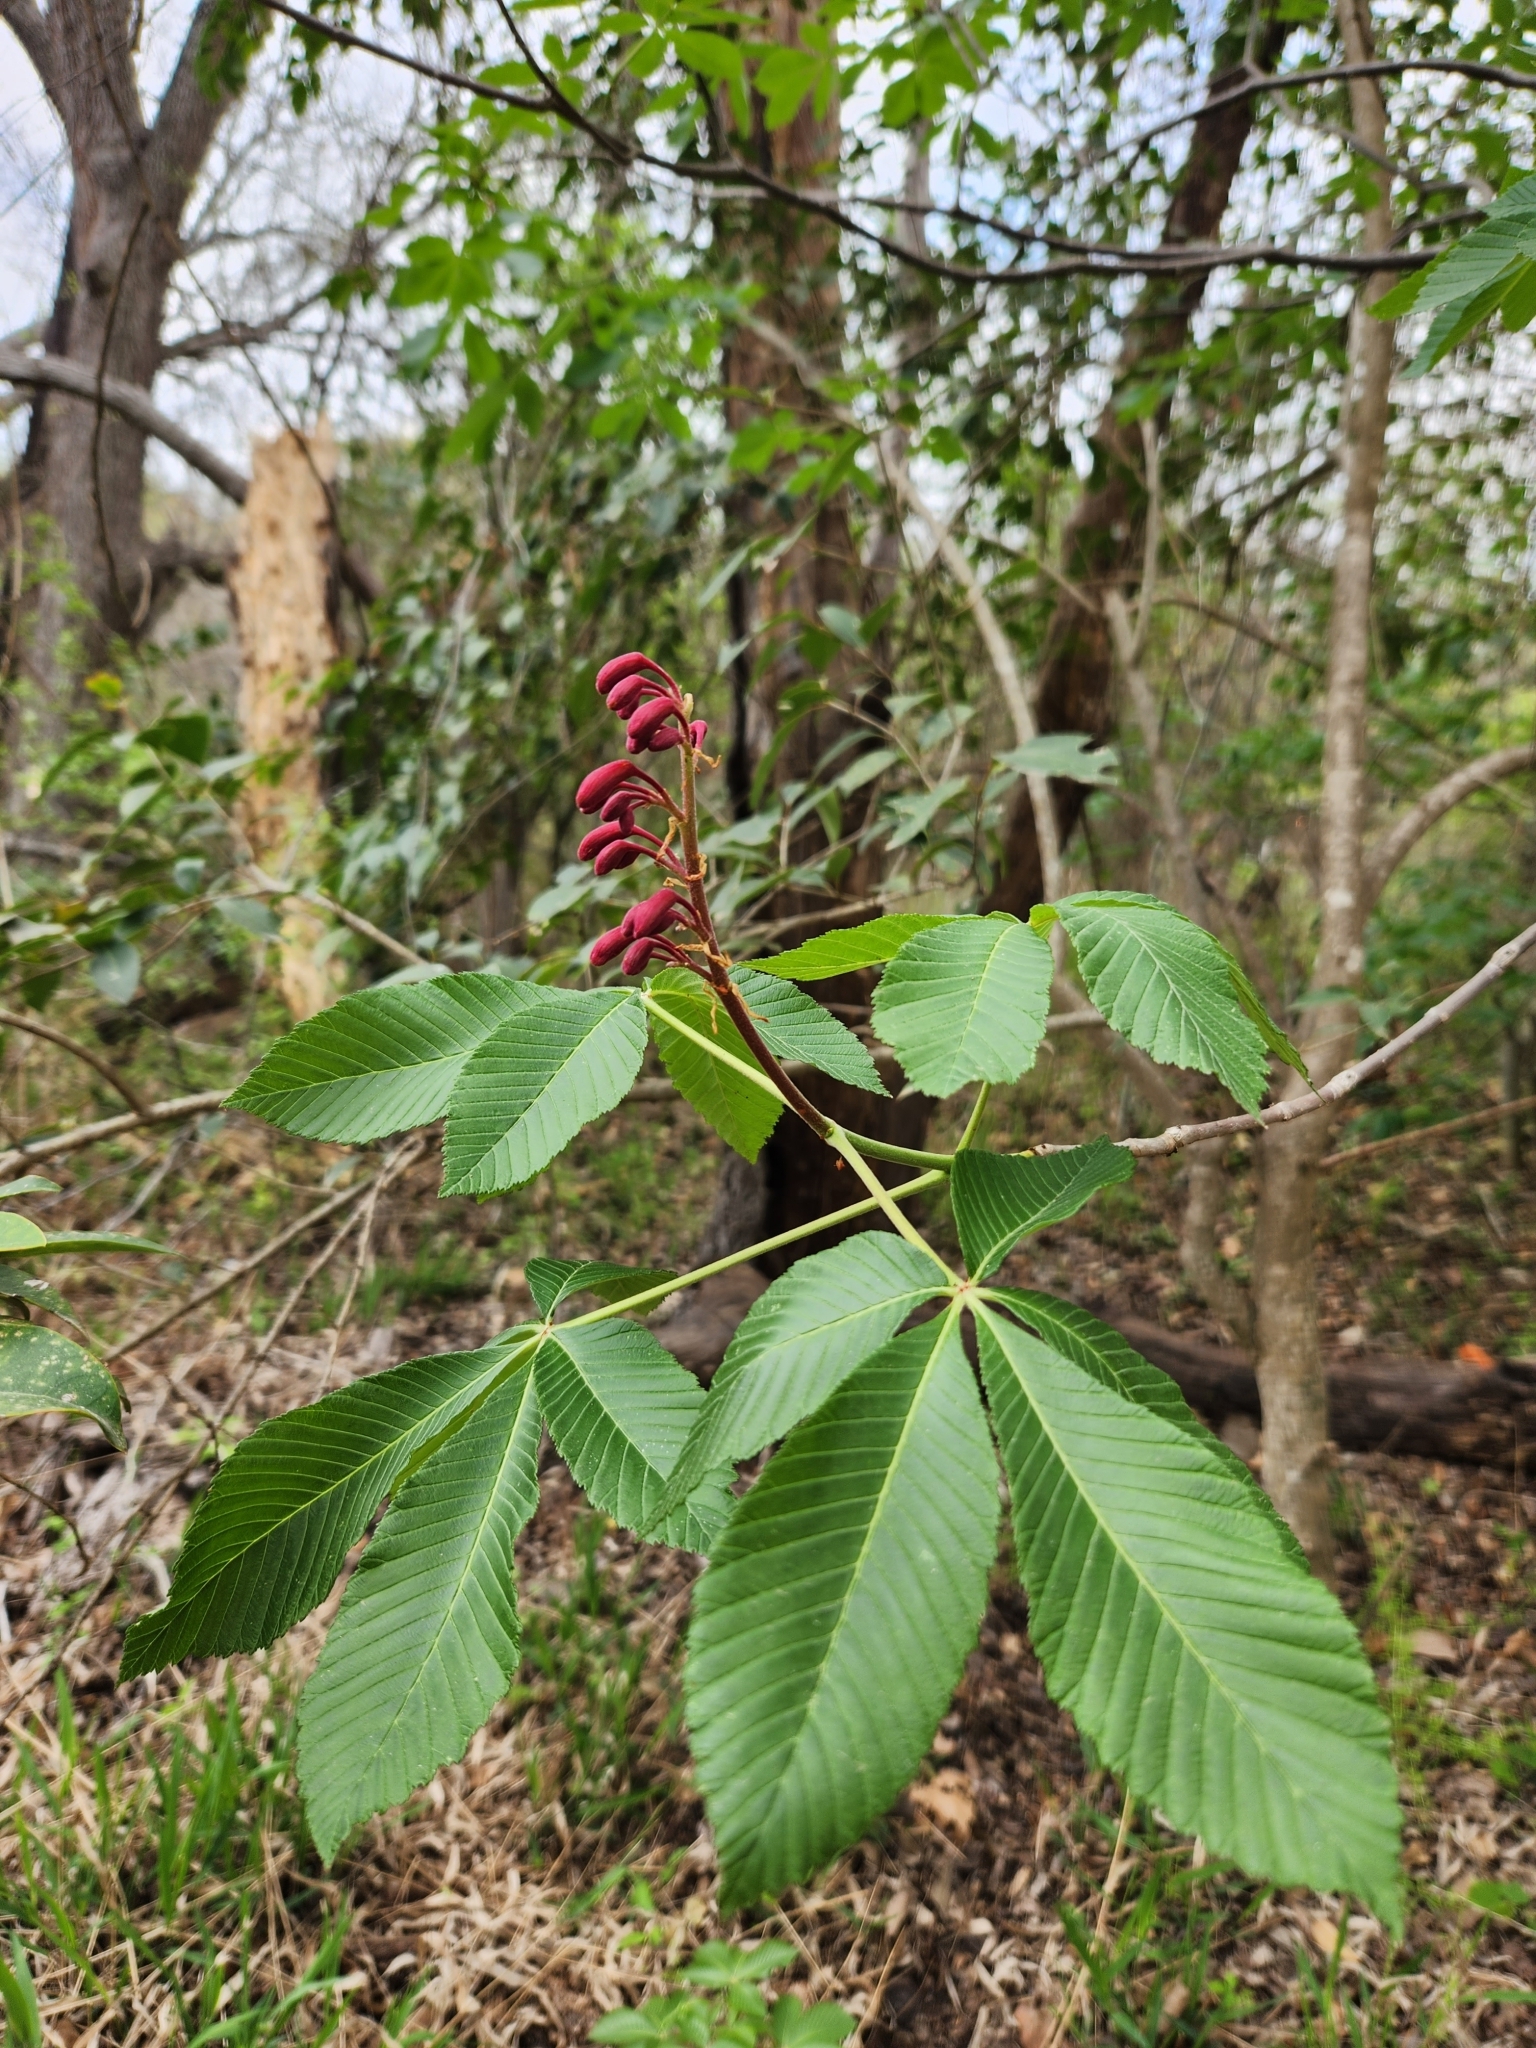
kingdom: Plantae
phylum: Tracheophyta
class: Magnoliopsida
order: Sapindales
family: Sapindaceae
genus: Aesculus
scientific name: Aesculus pavia
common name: Red buckeye
